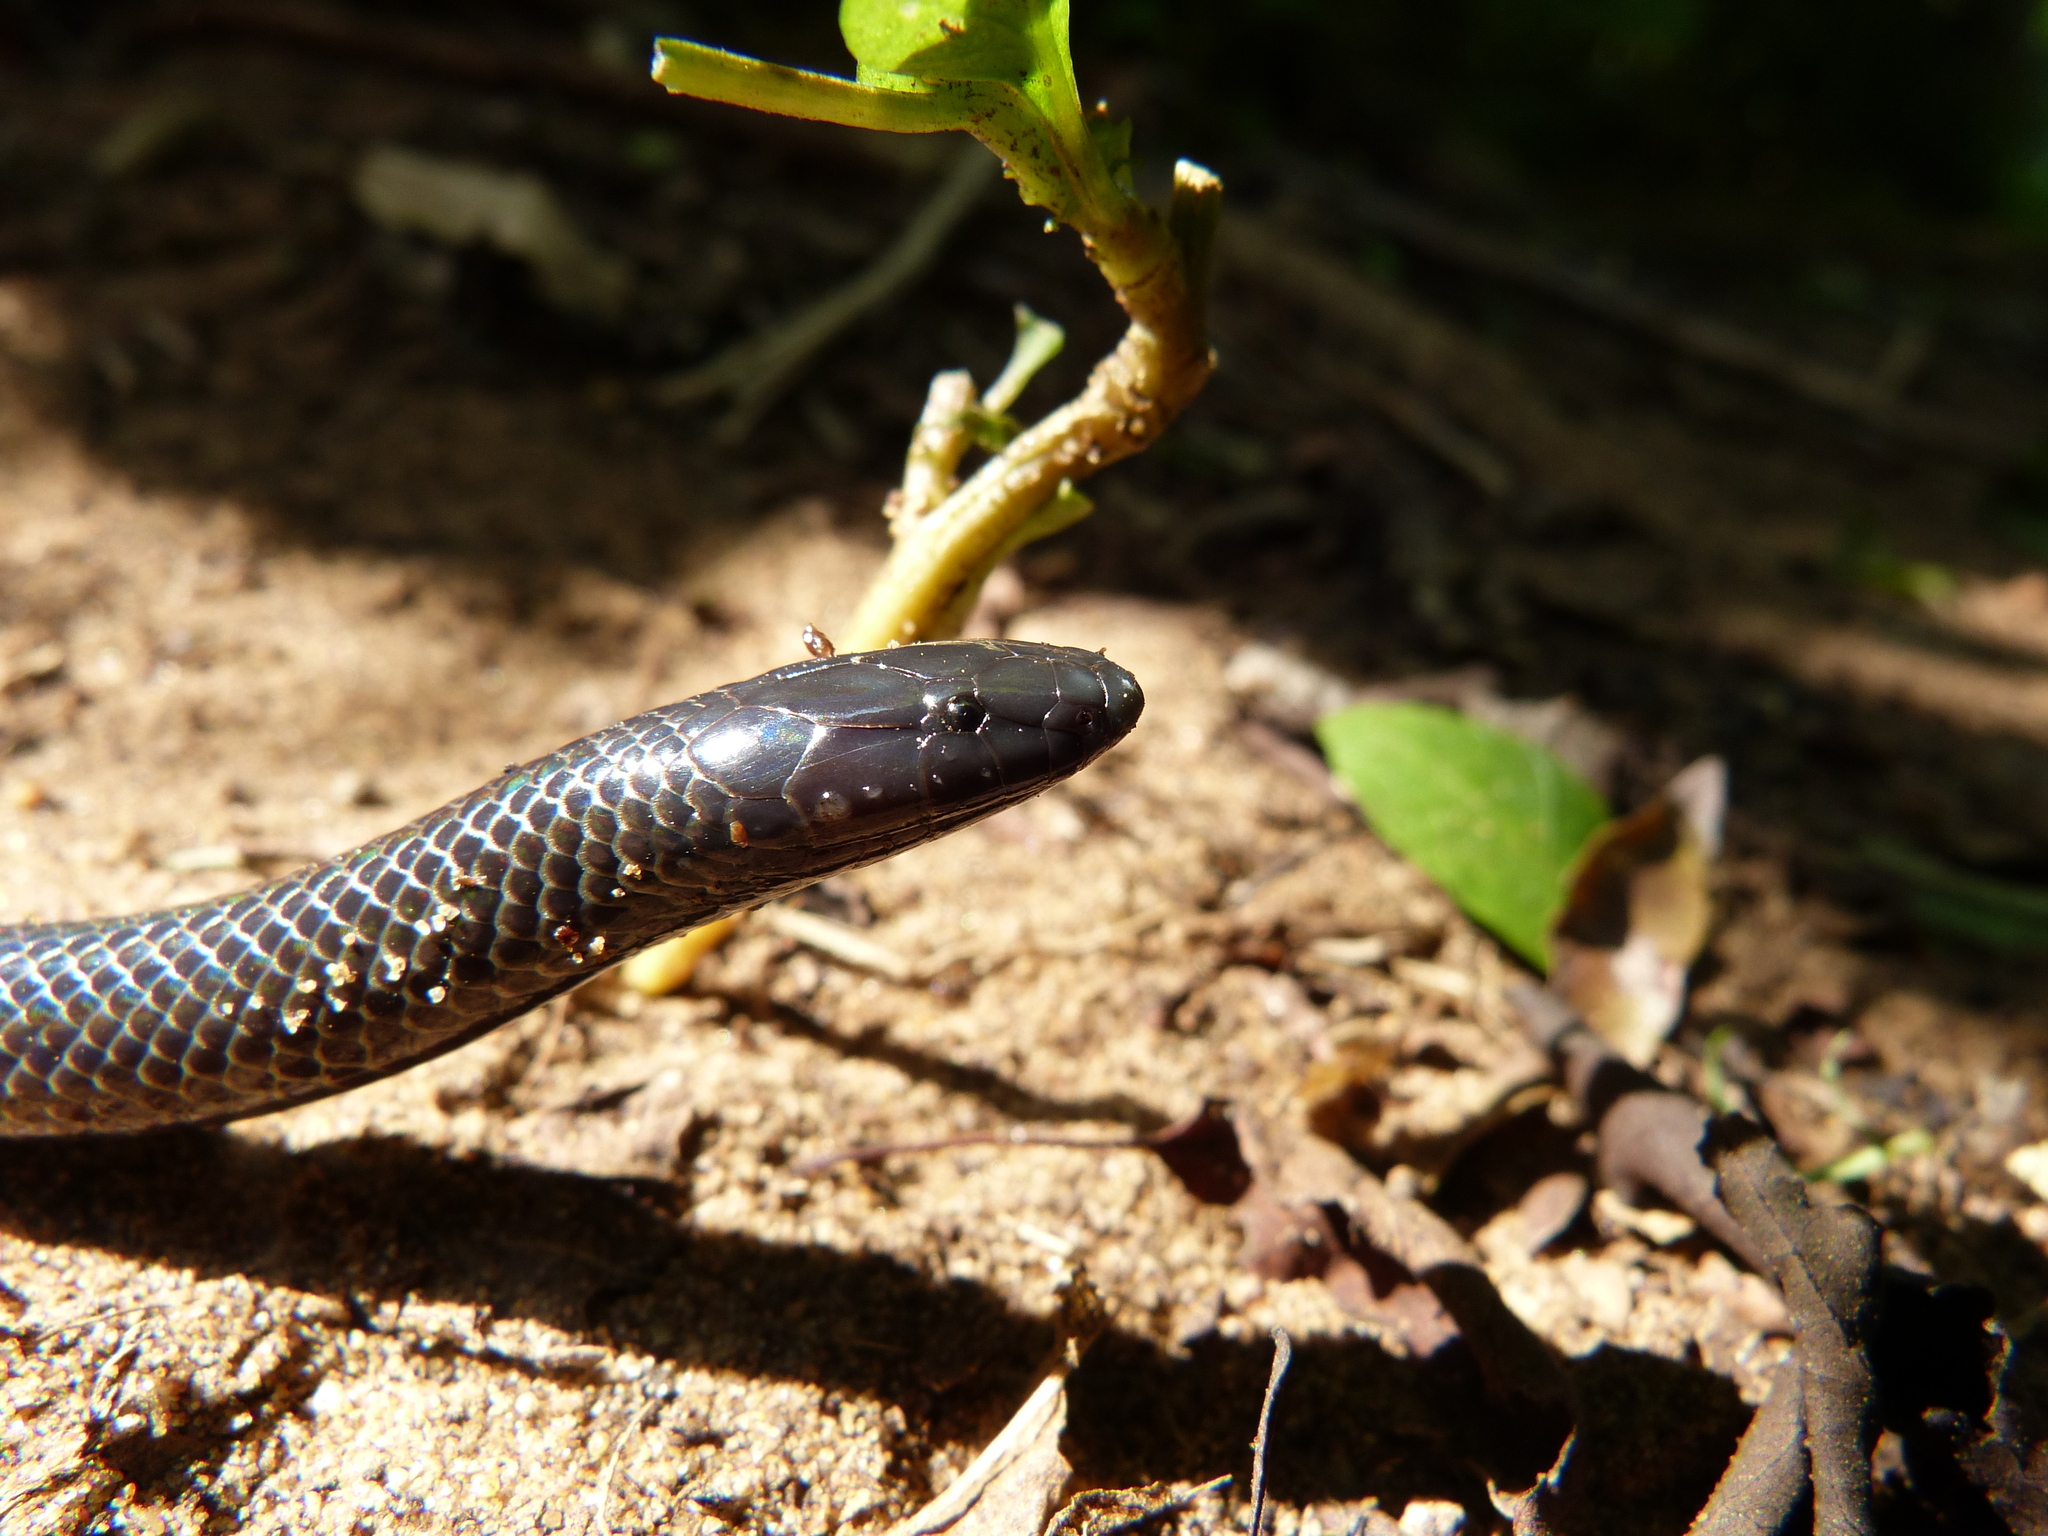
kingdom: Animalia
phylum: Chordata
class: Squamata
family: Atractaspididae
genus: Amblyodipsas
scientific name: Amblyodipsas polylepis
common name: Common purple-glossed snake
